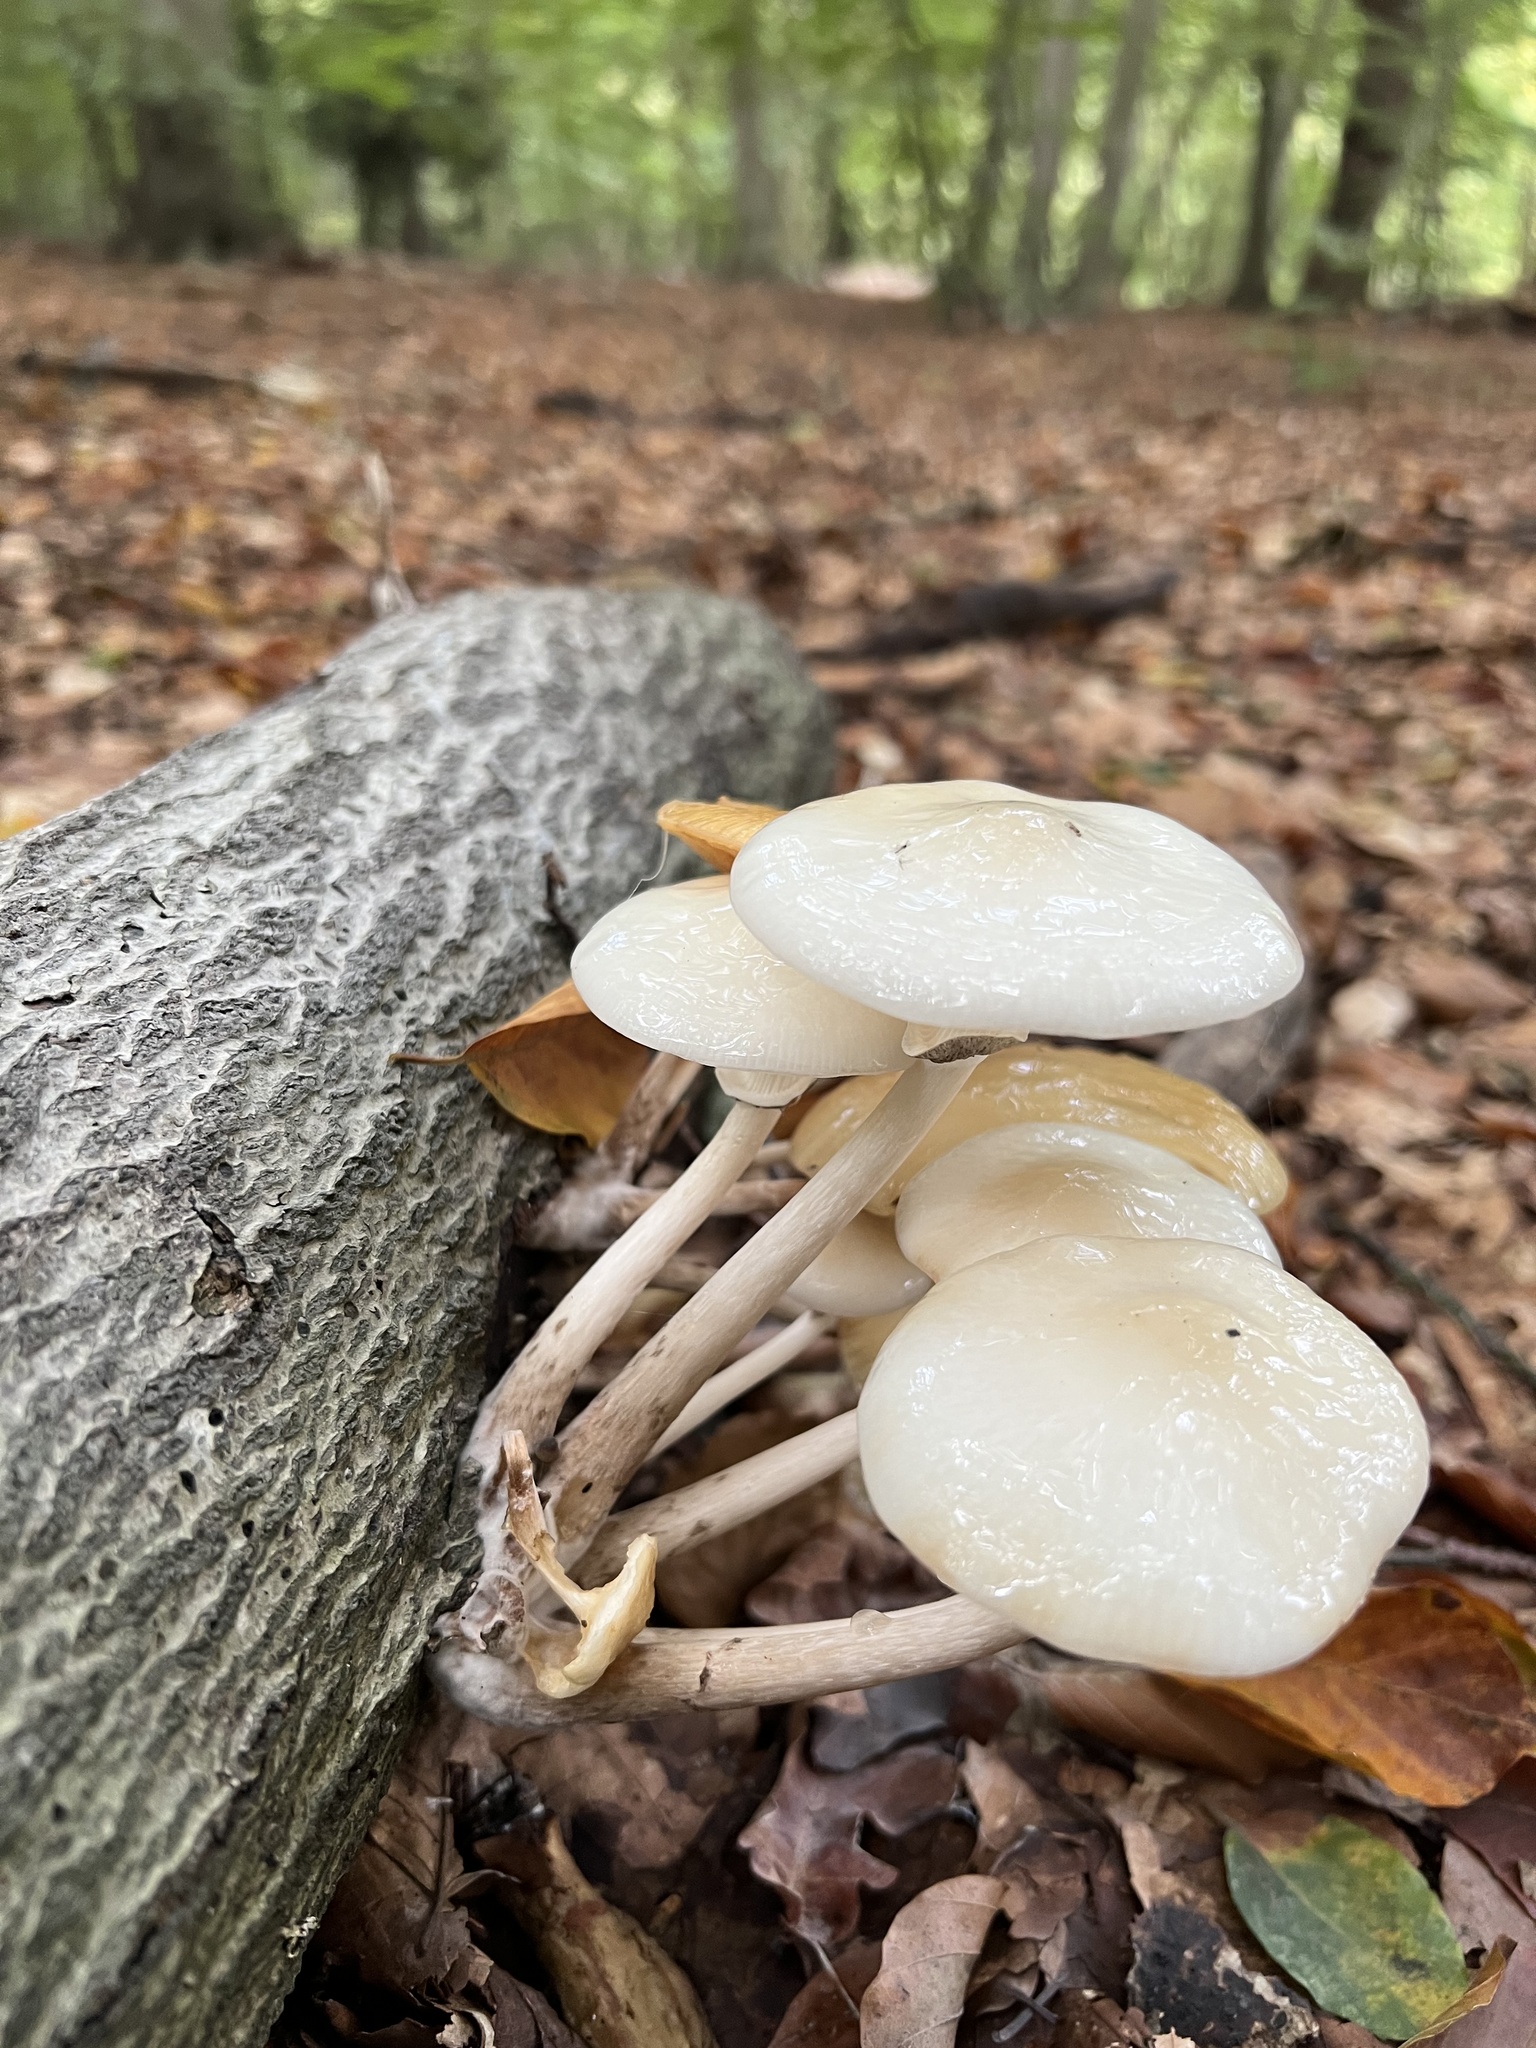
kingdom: Fungi
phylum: Basidiomycota
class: Agaricomycetes
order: Agaricales
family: Physalacriaceae
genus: Mucidula
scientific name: Mucidula mucida
